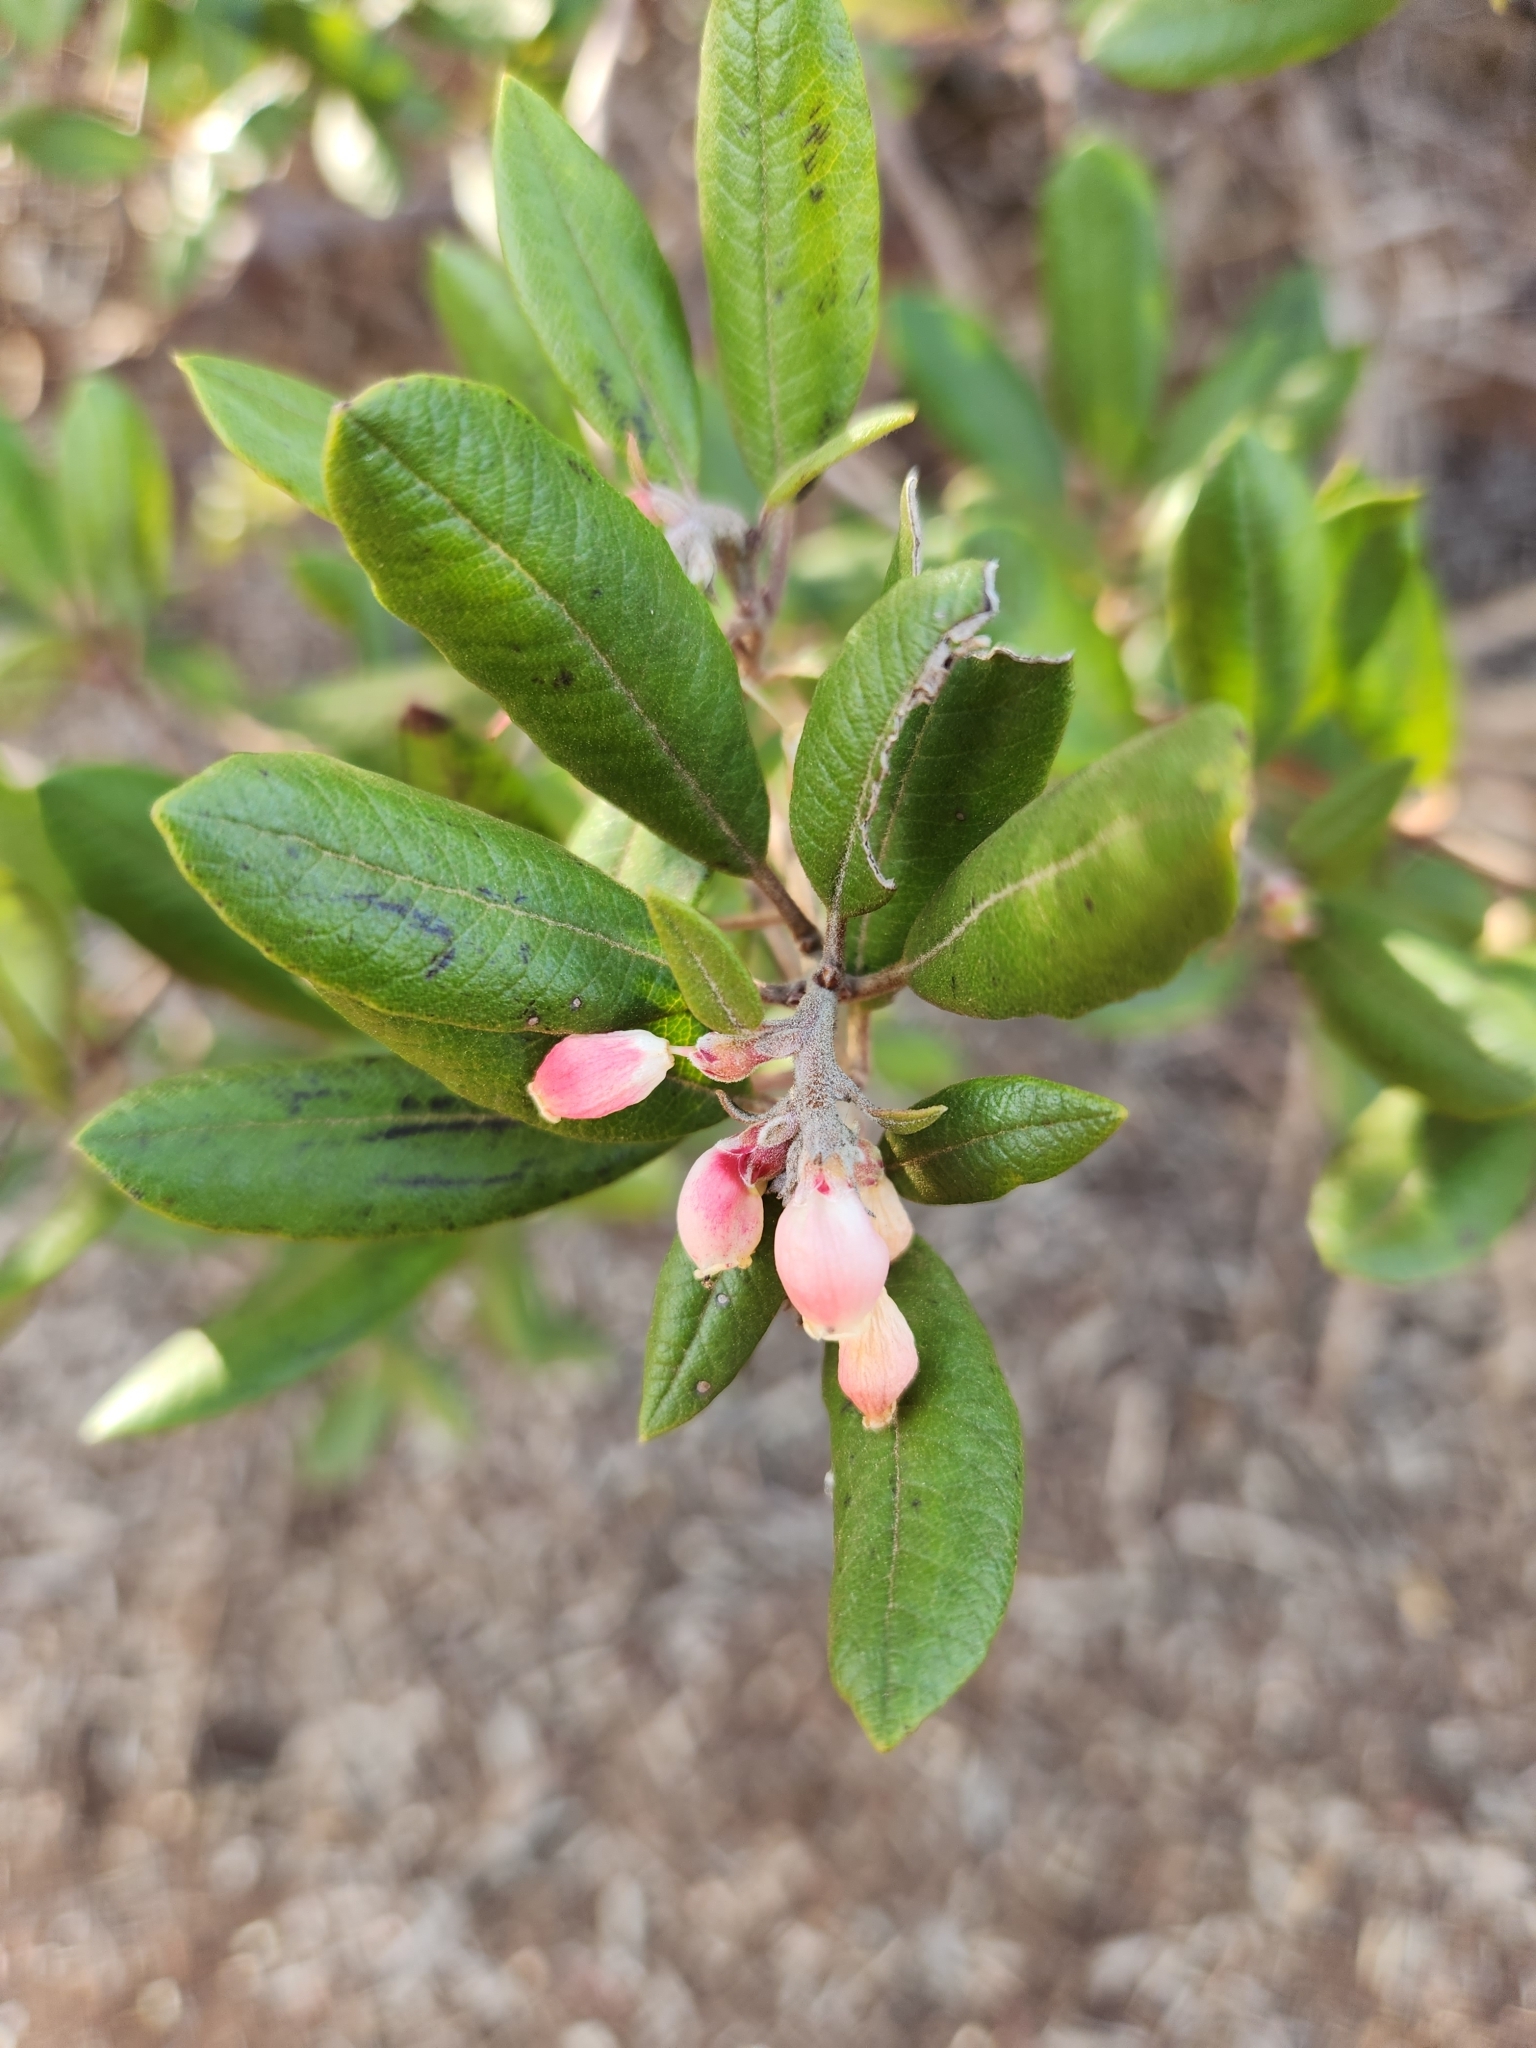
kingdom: Plantae
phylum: Tracheophyta
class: Magnoliopsida
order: Ericales
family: Ericaceae
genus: Arctostaphylos
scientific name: Arctostaphylos bicolor
